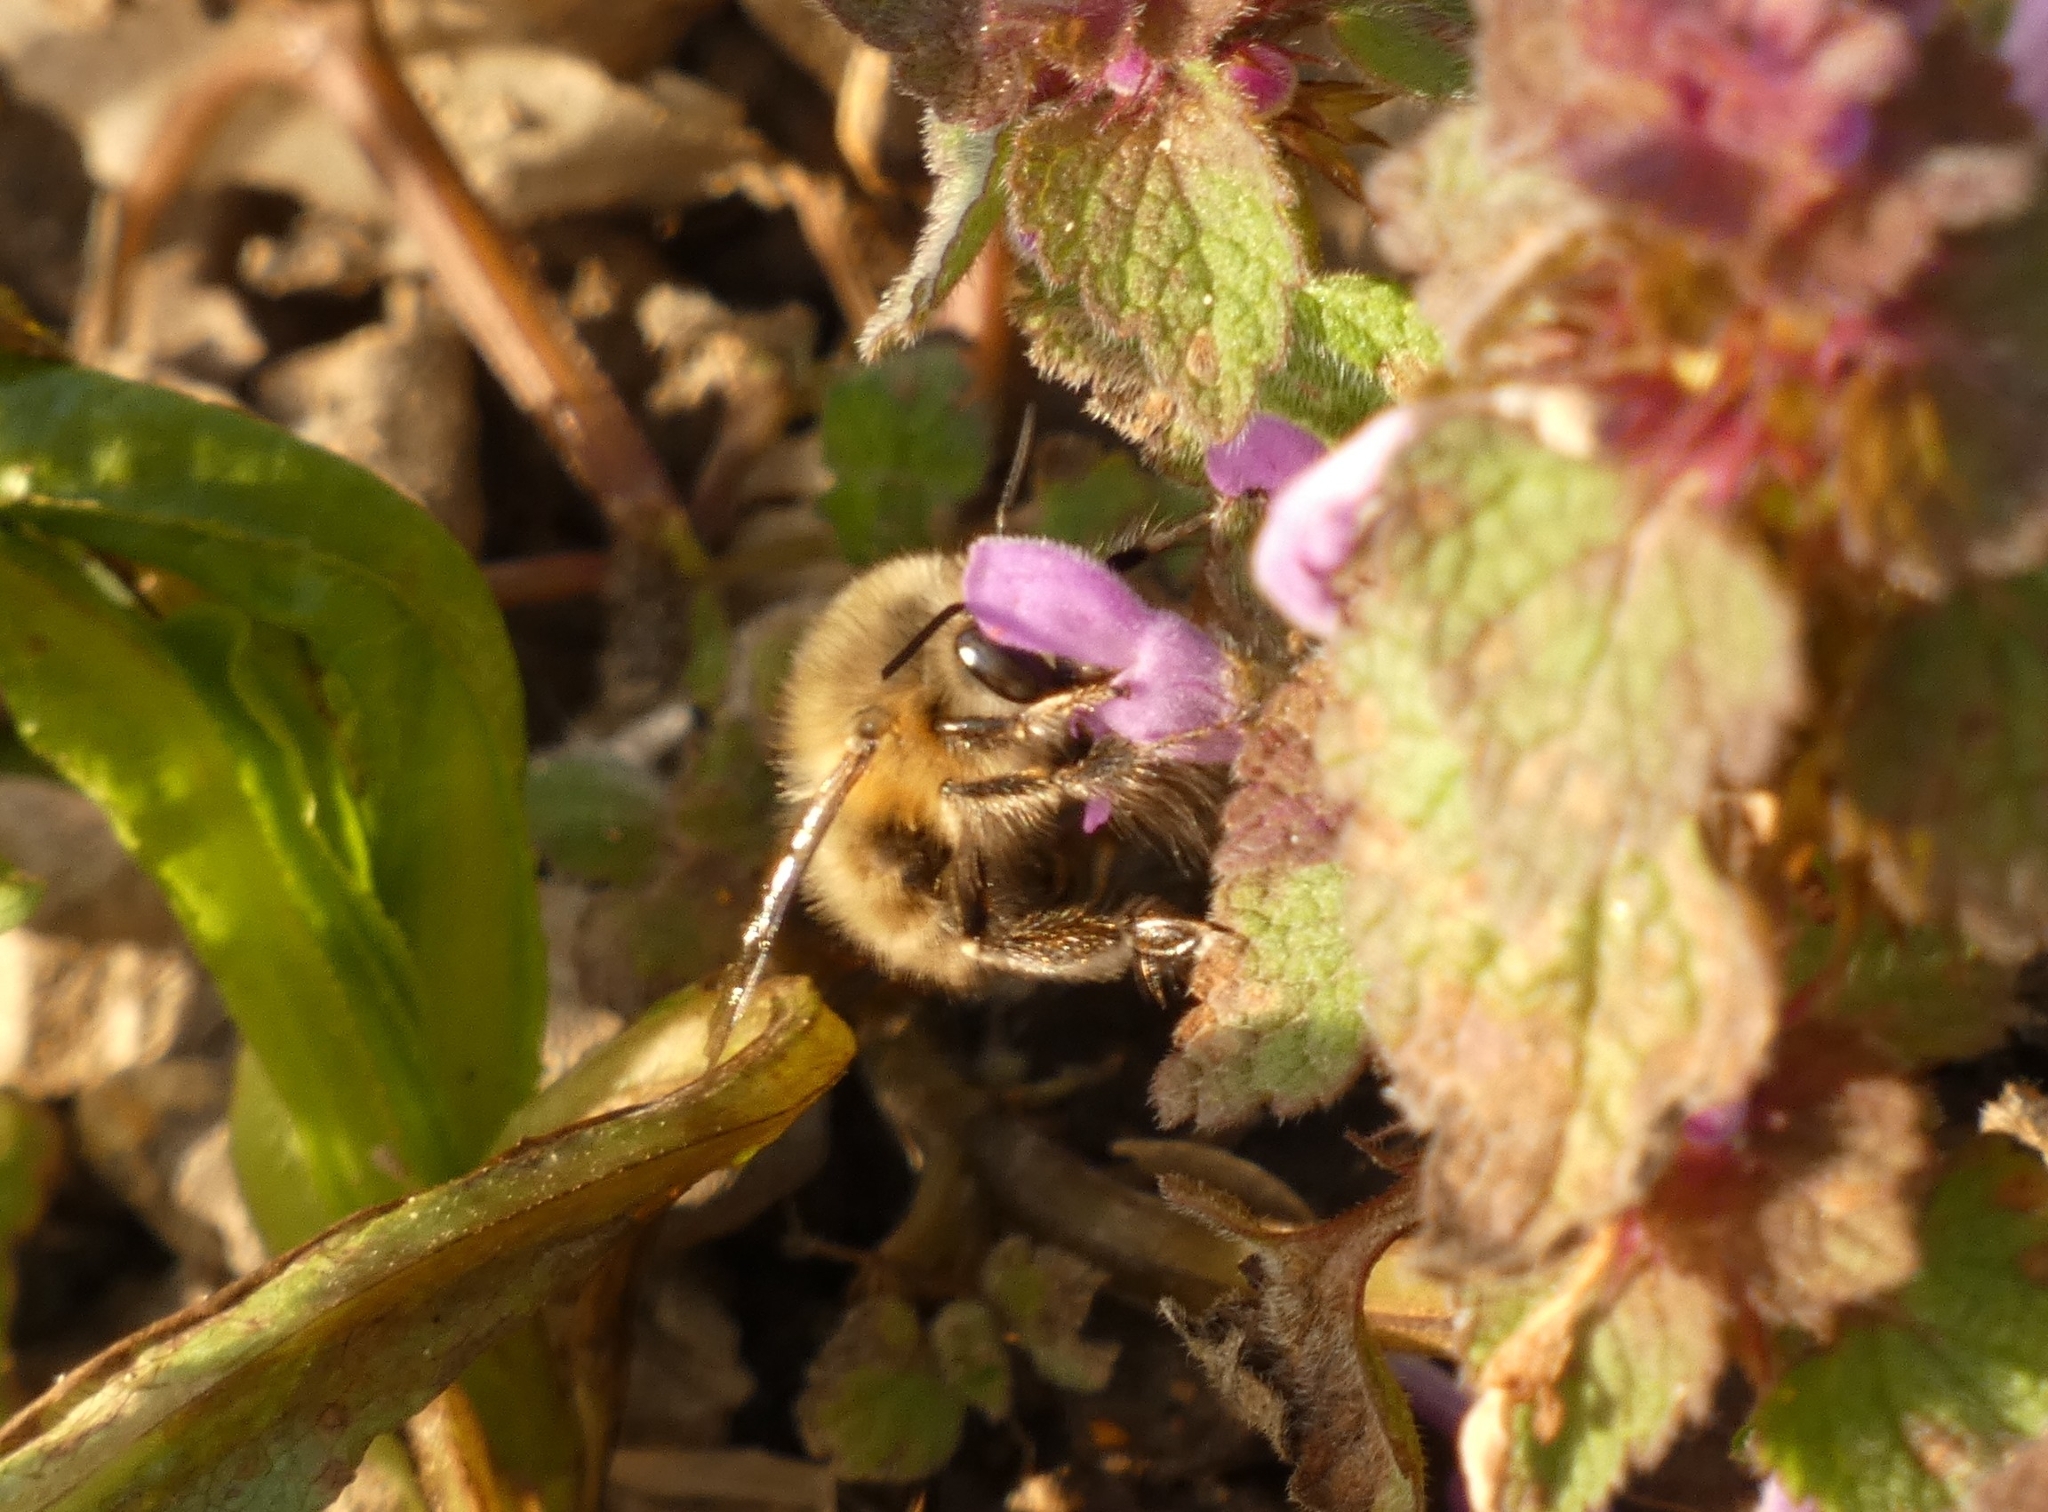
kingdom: Animalia
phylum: Arthropoda
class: Insecta
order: Hymenoptera
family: Apidae
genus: Anthophora
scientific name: Anthophora plumipes
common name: Hairy-footed flower bee
